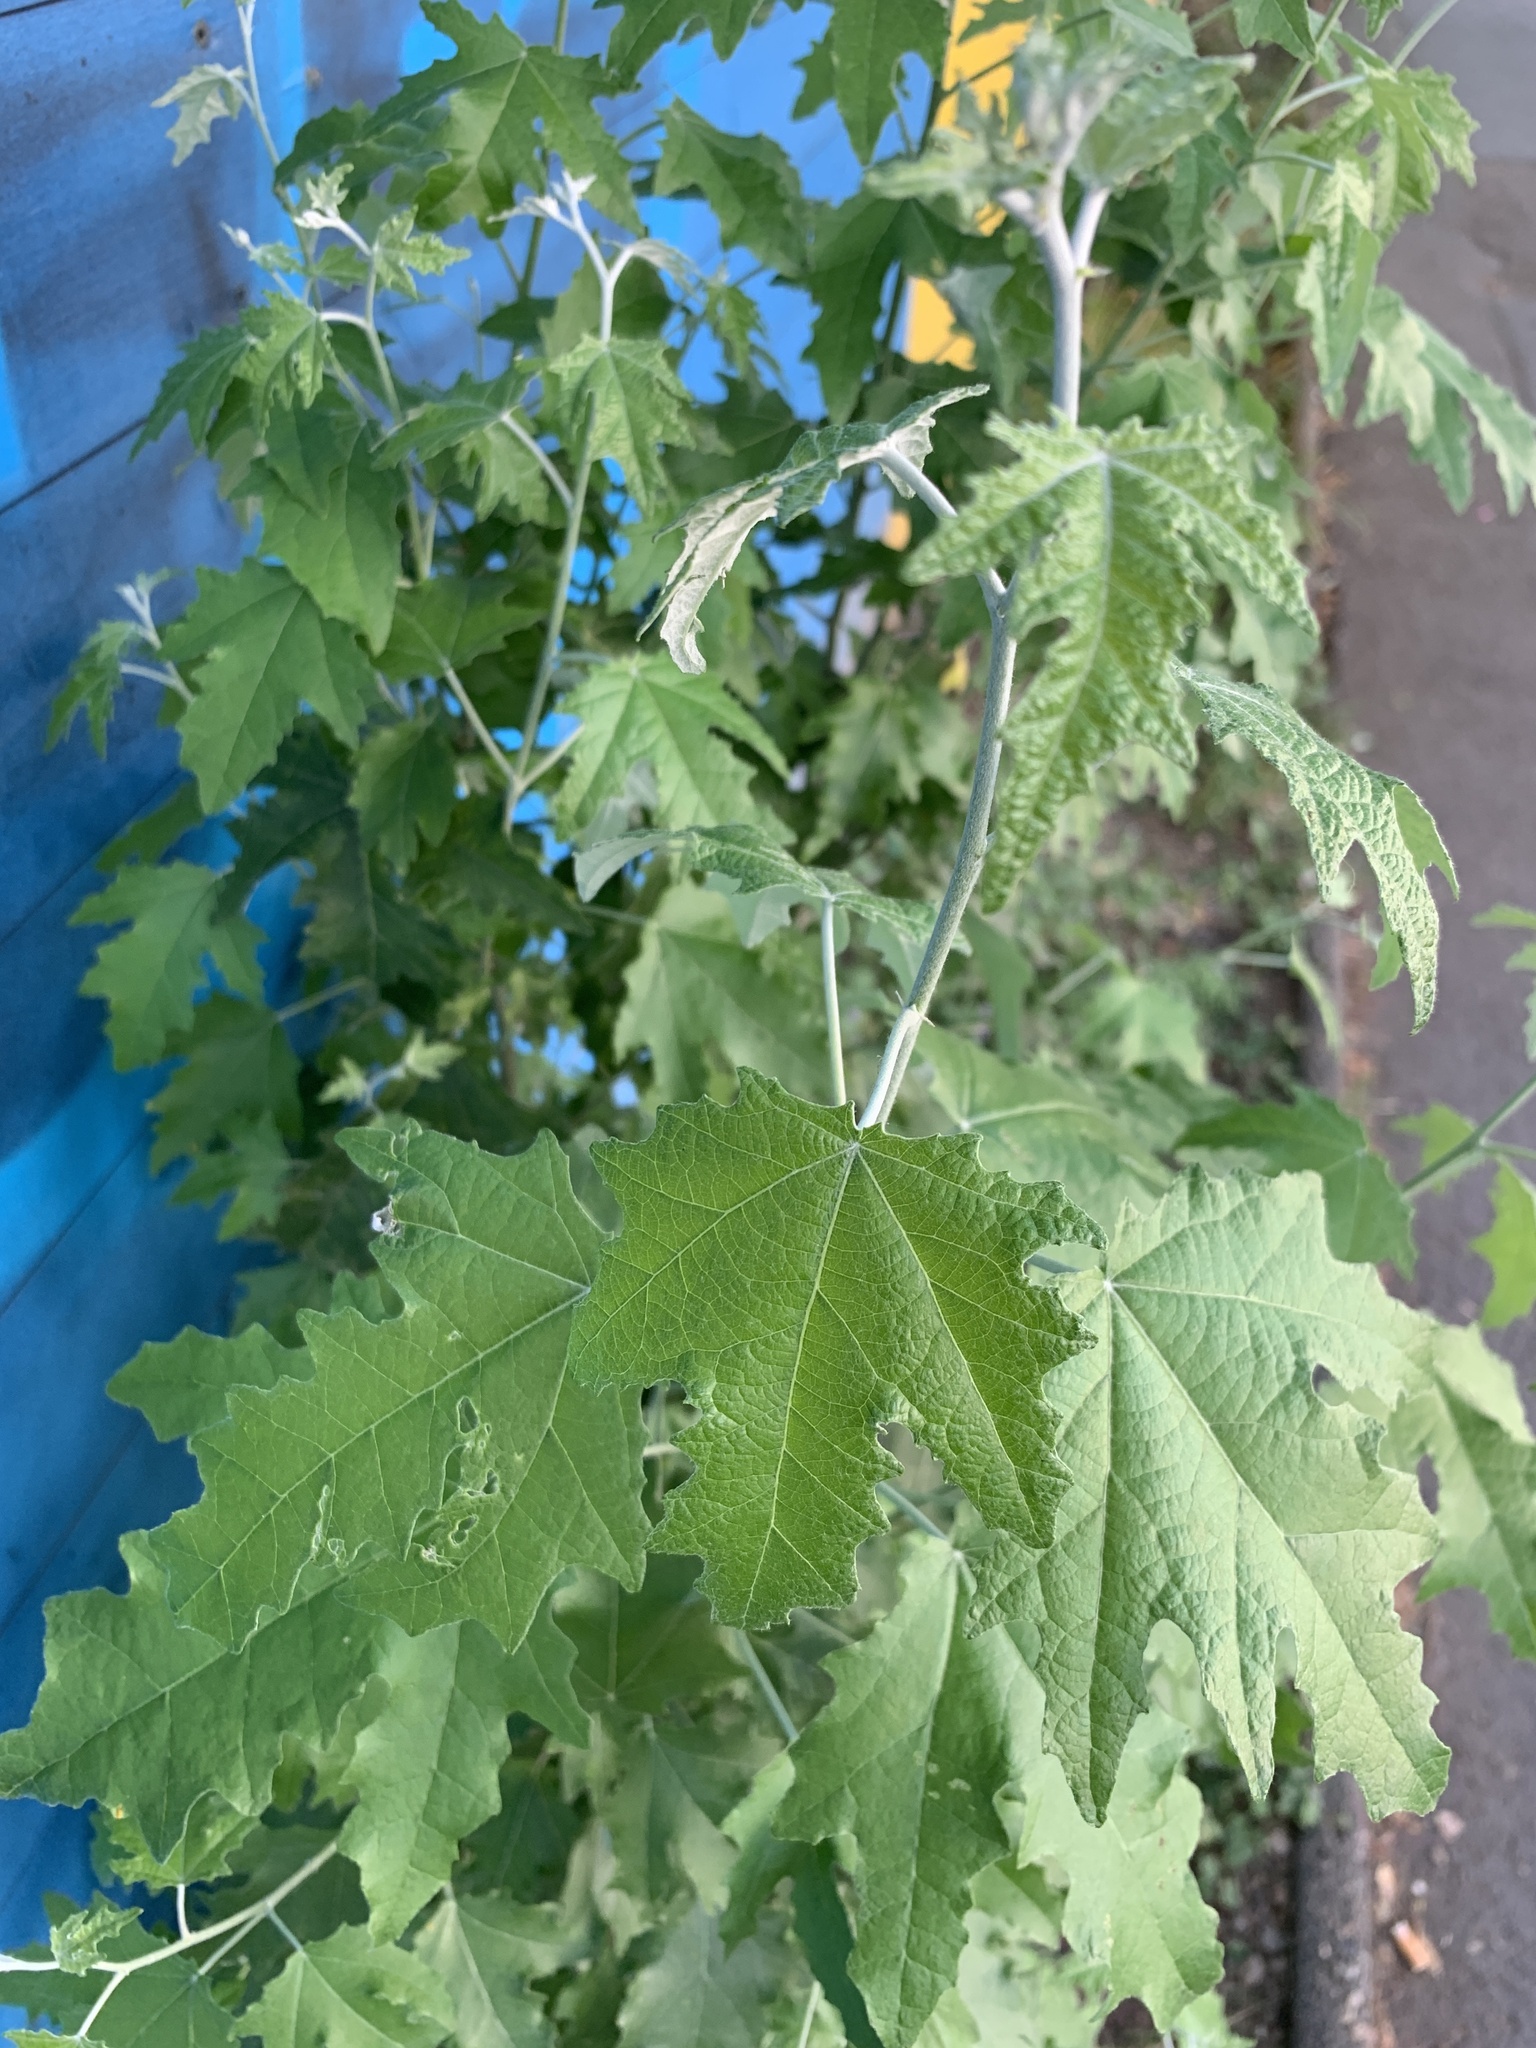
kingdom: Plantae
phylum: Tracheophyta
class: Magnoliopsida
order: Malpighiales
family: Salicaceae
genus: Populus
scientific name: Populus alba
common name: White poplar
